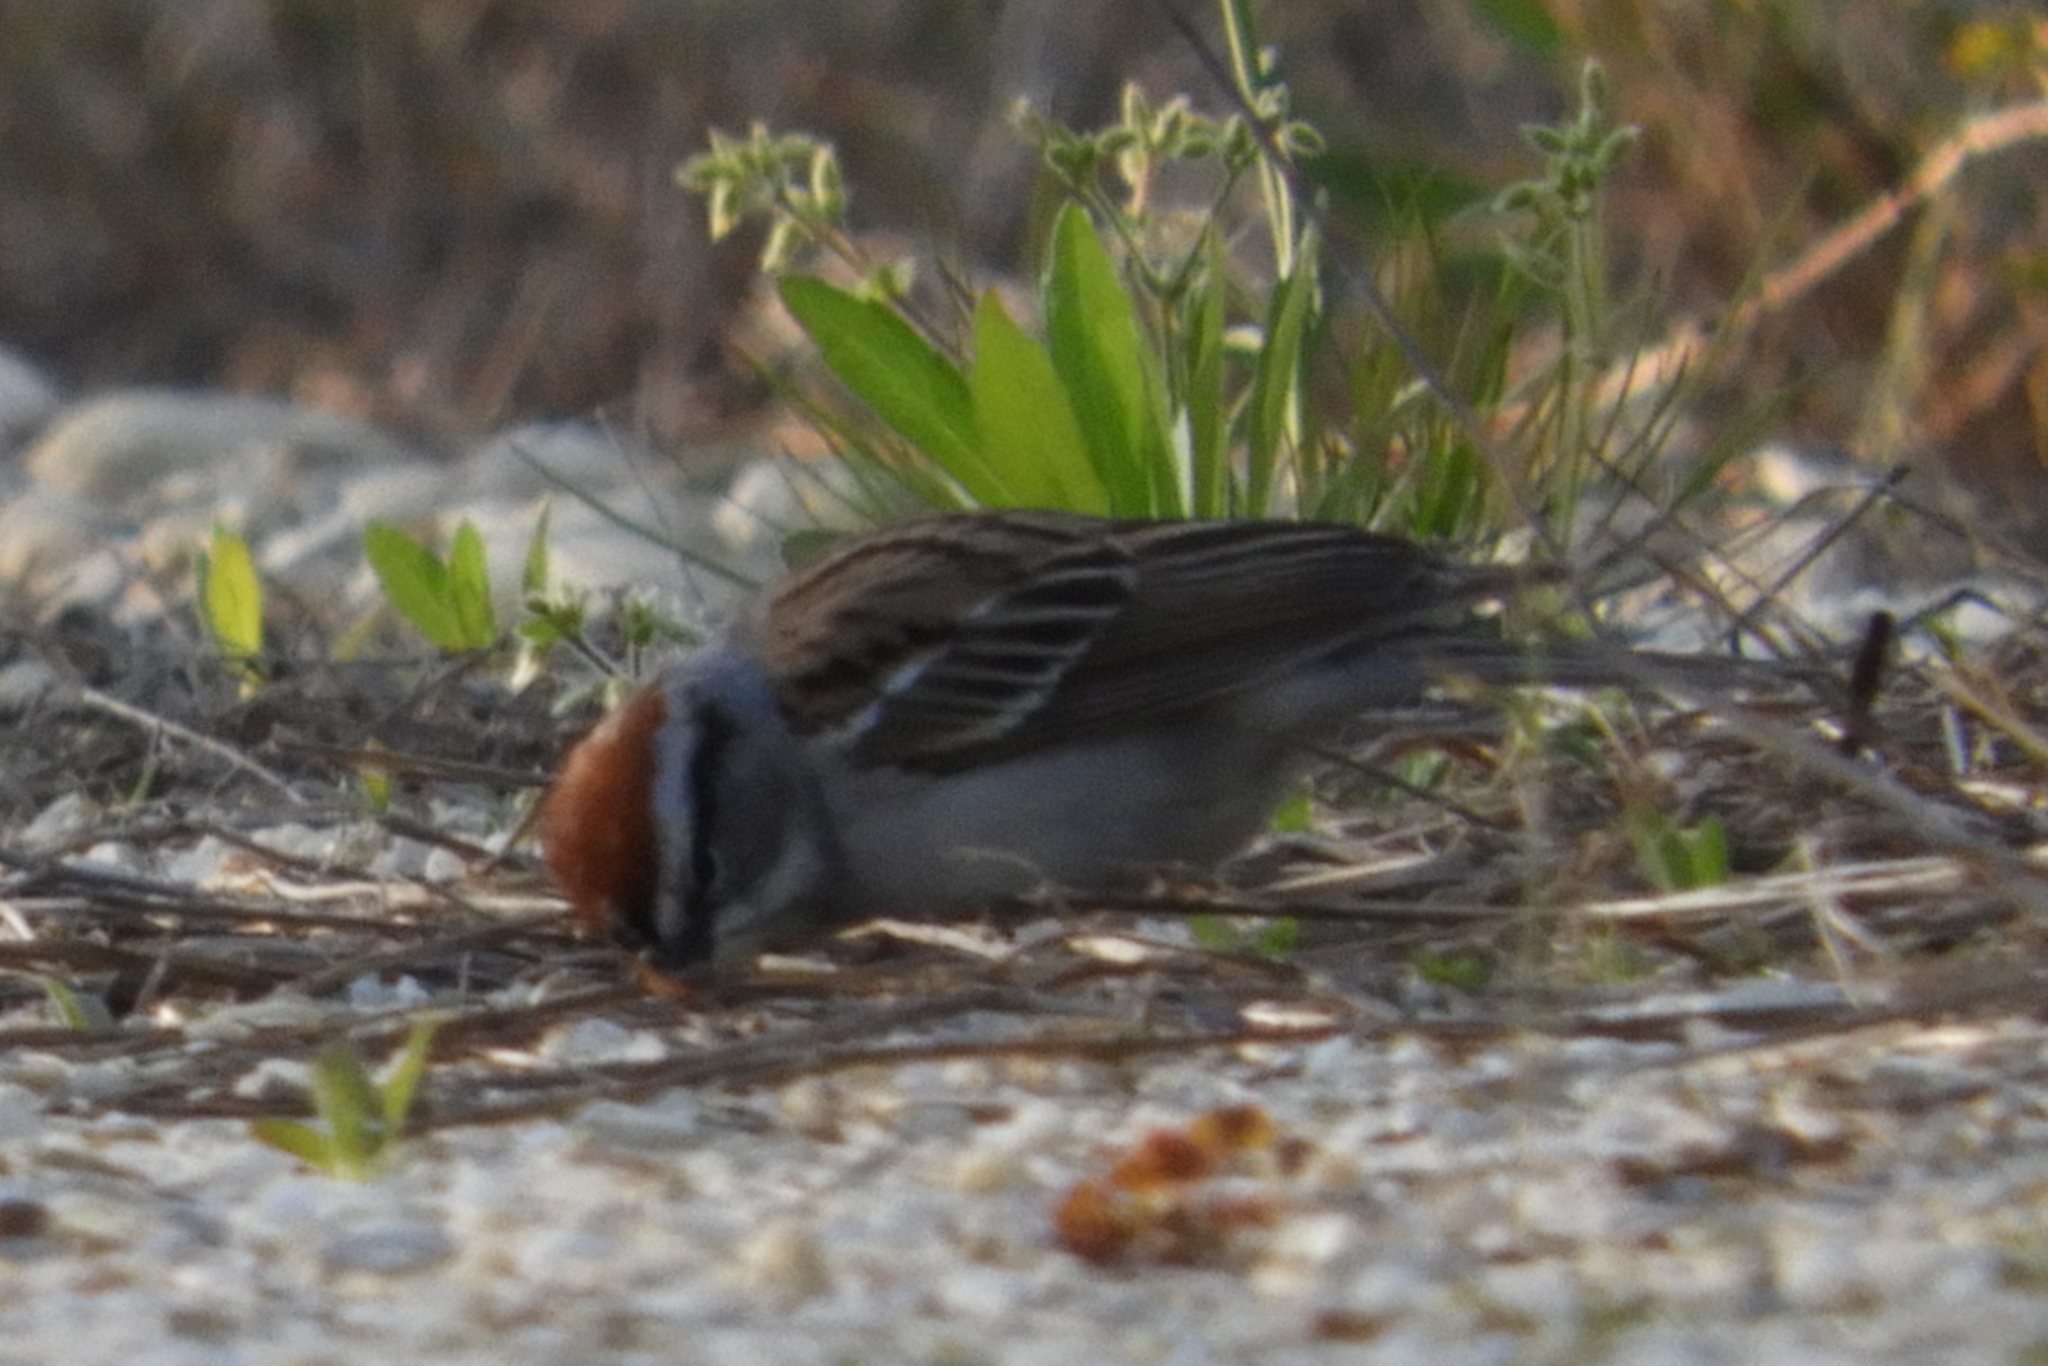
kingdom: Animalia
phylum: Chordata
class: Aves
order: Passeriformes
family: Passerellidae
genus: Spizella
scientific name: Spizella passerina
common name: Chipping sparrow
